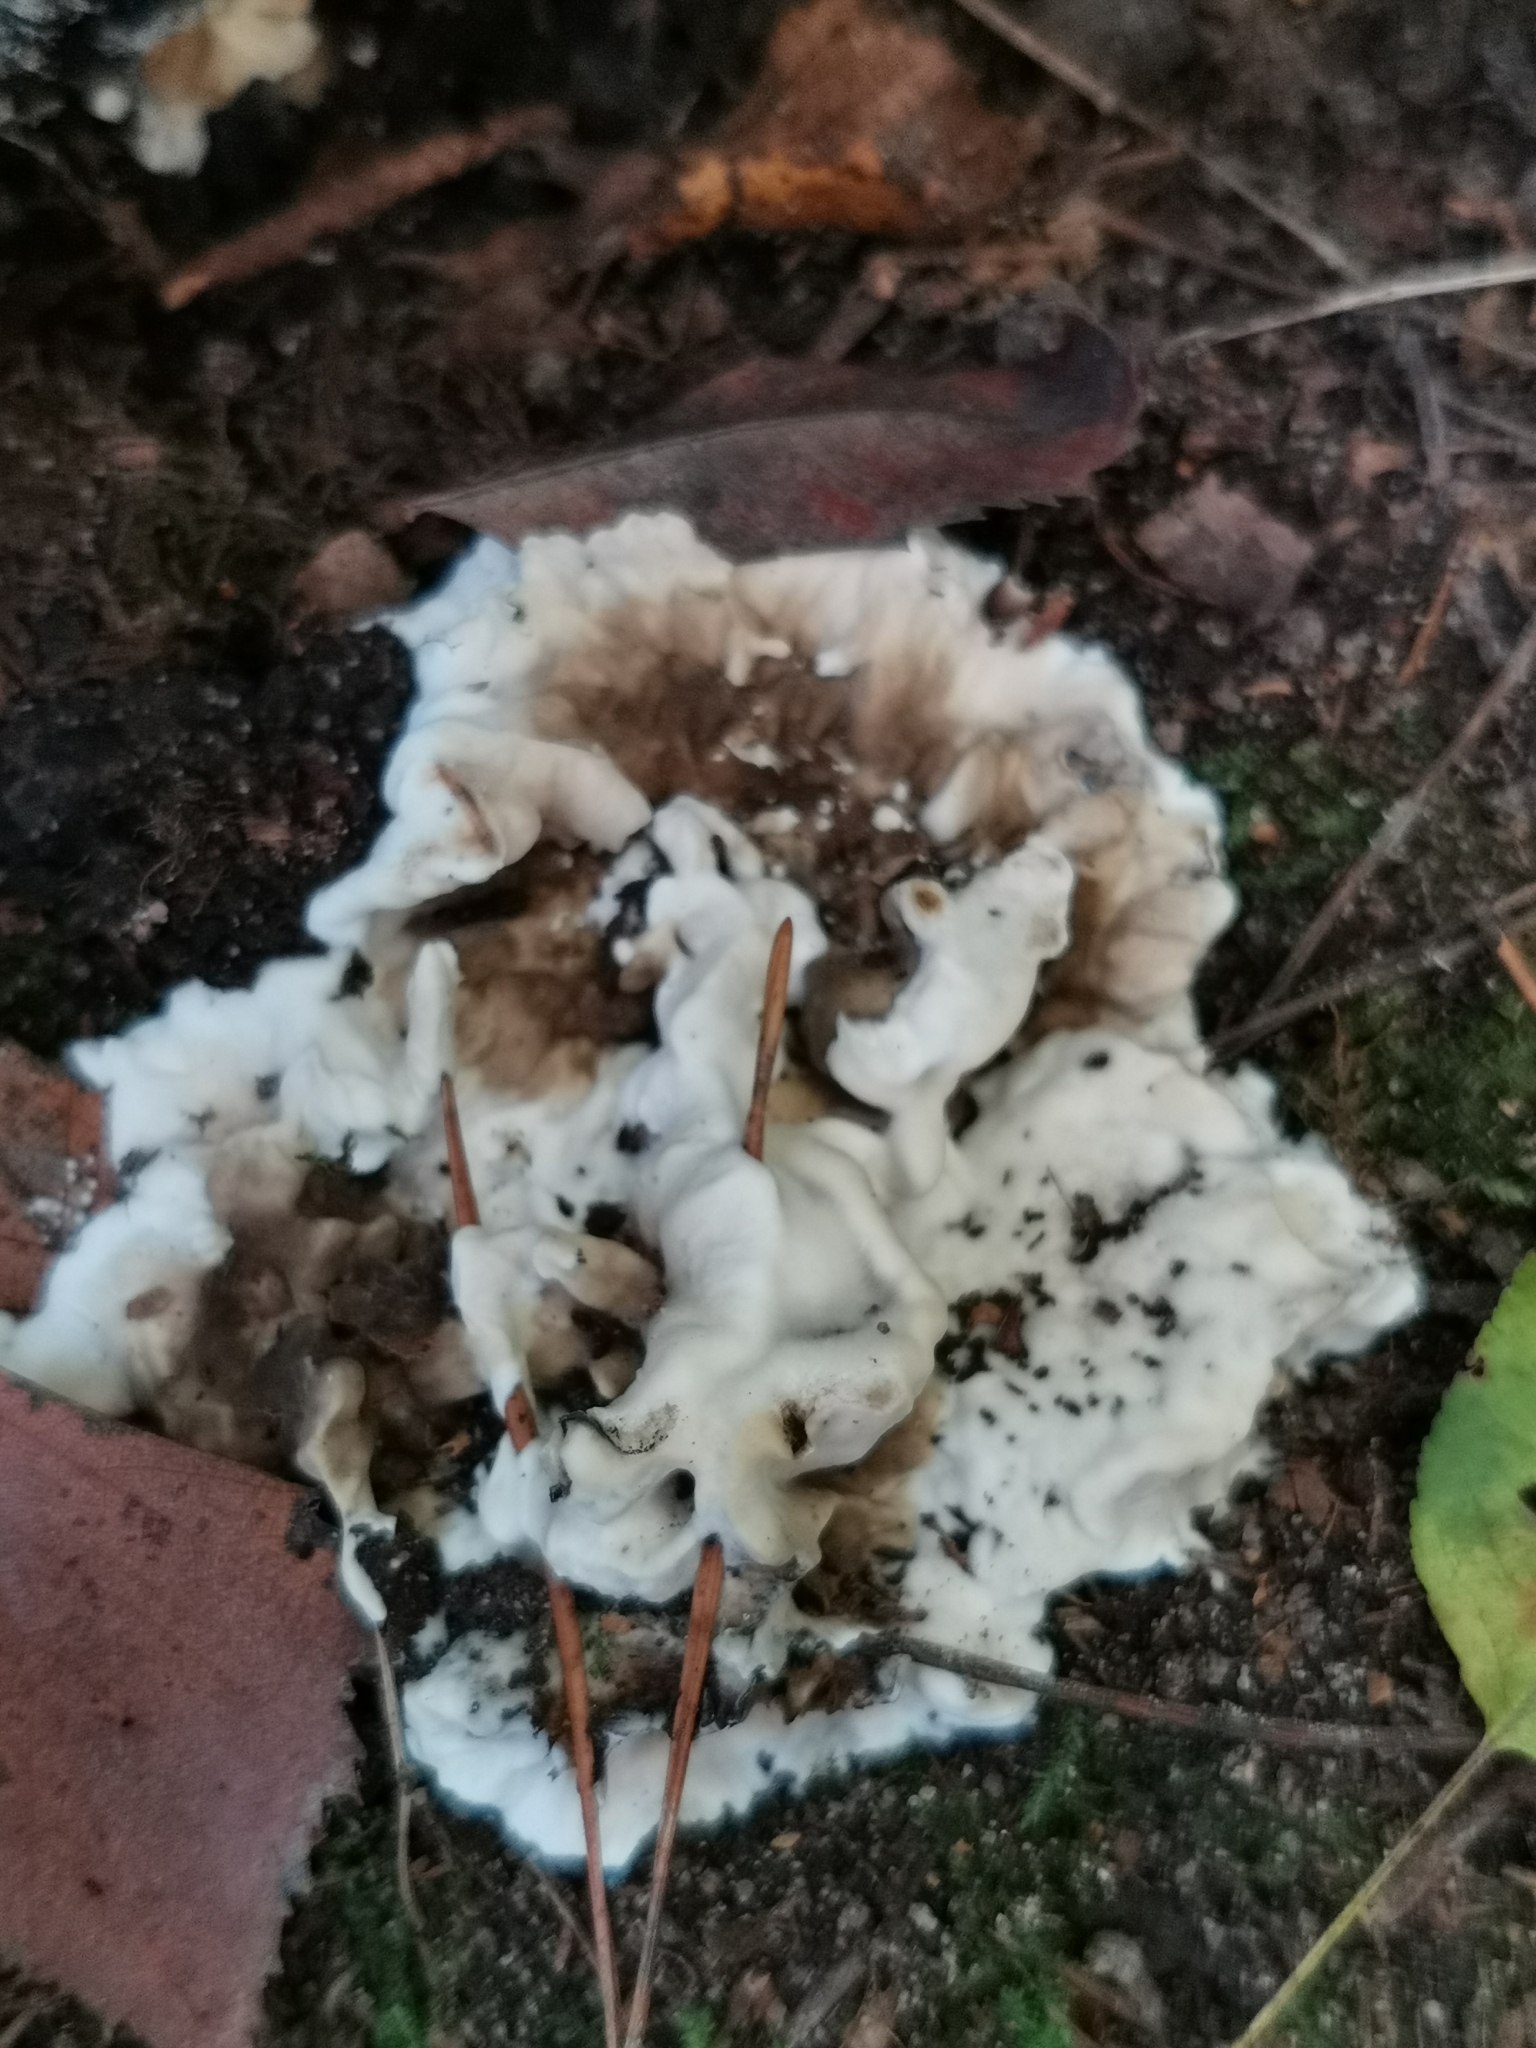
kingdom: Fungi
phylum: Basidiomycota
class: Agaricomycetes
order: Polyporales
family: Phanerochaetaceae
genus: Bjerkandera
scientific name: Bjerkandera adusta
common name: Smoky bracket
